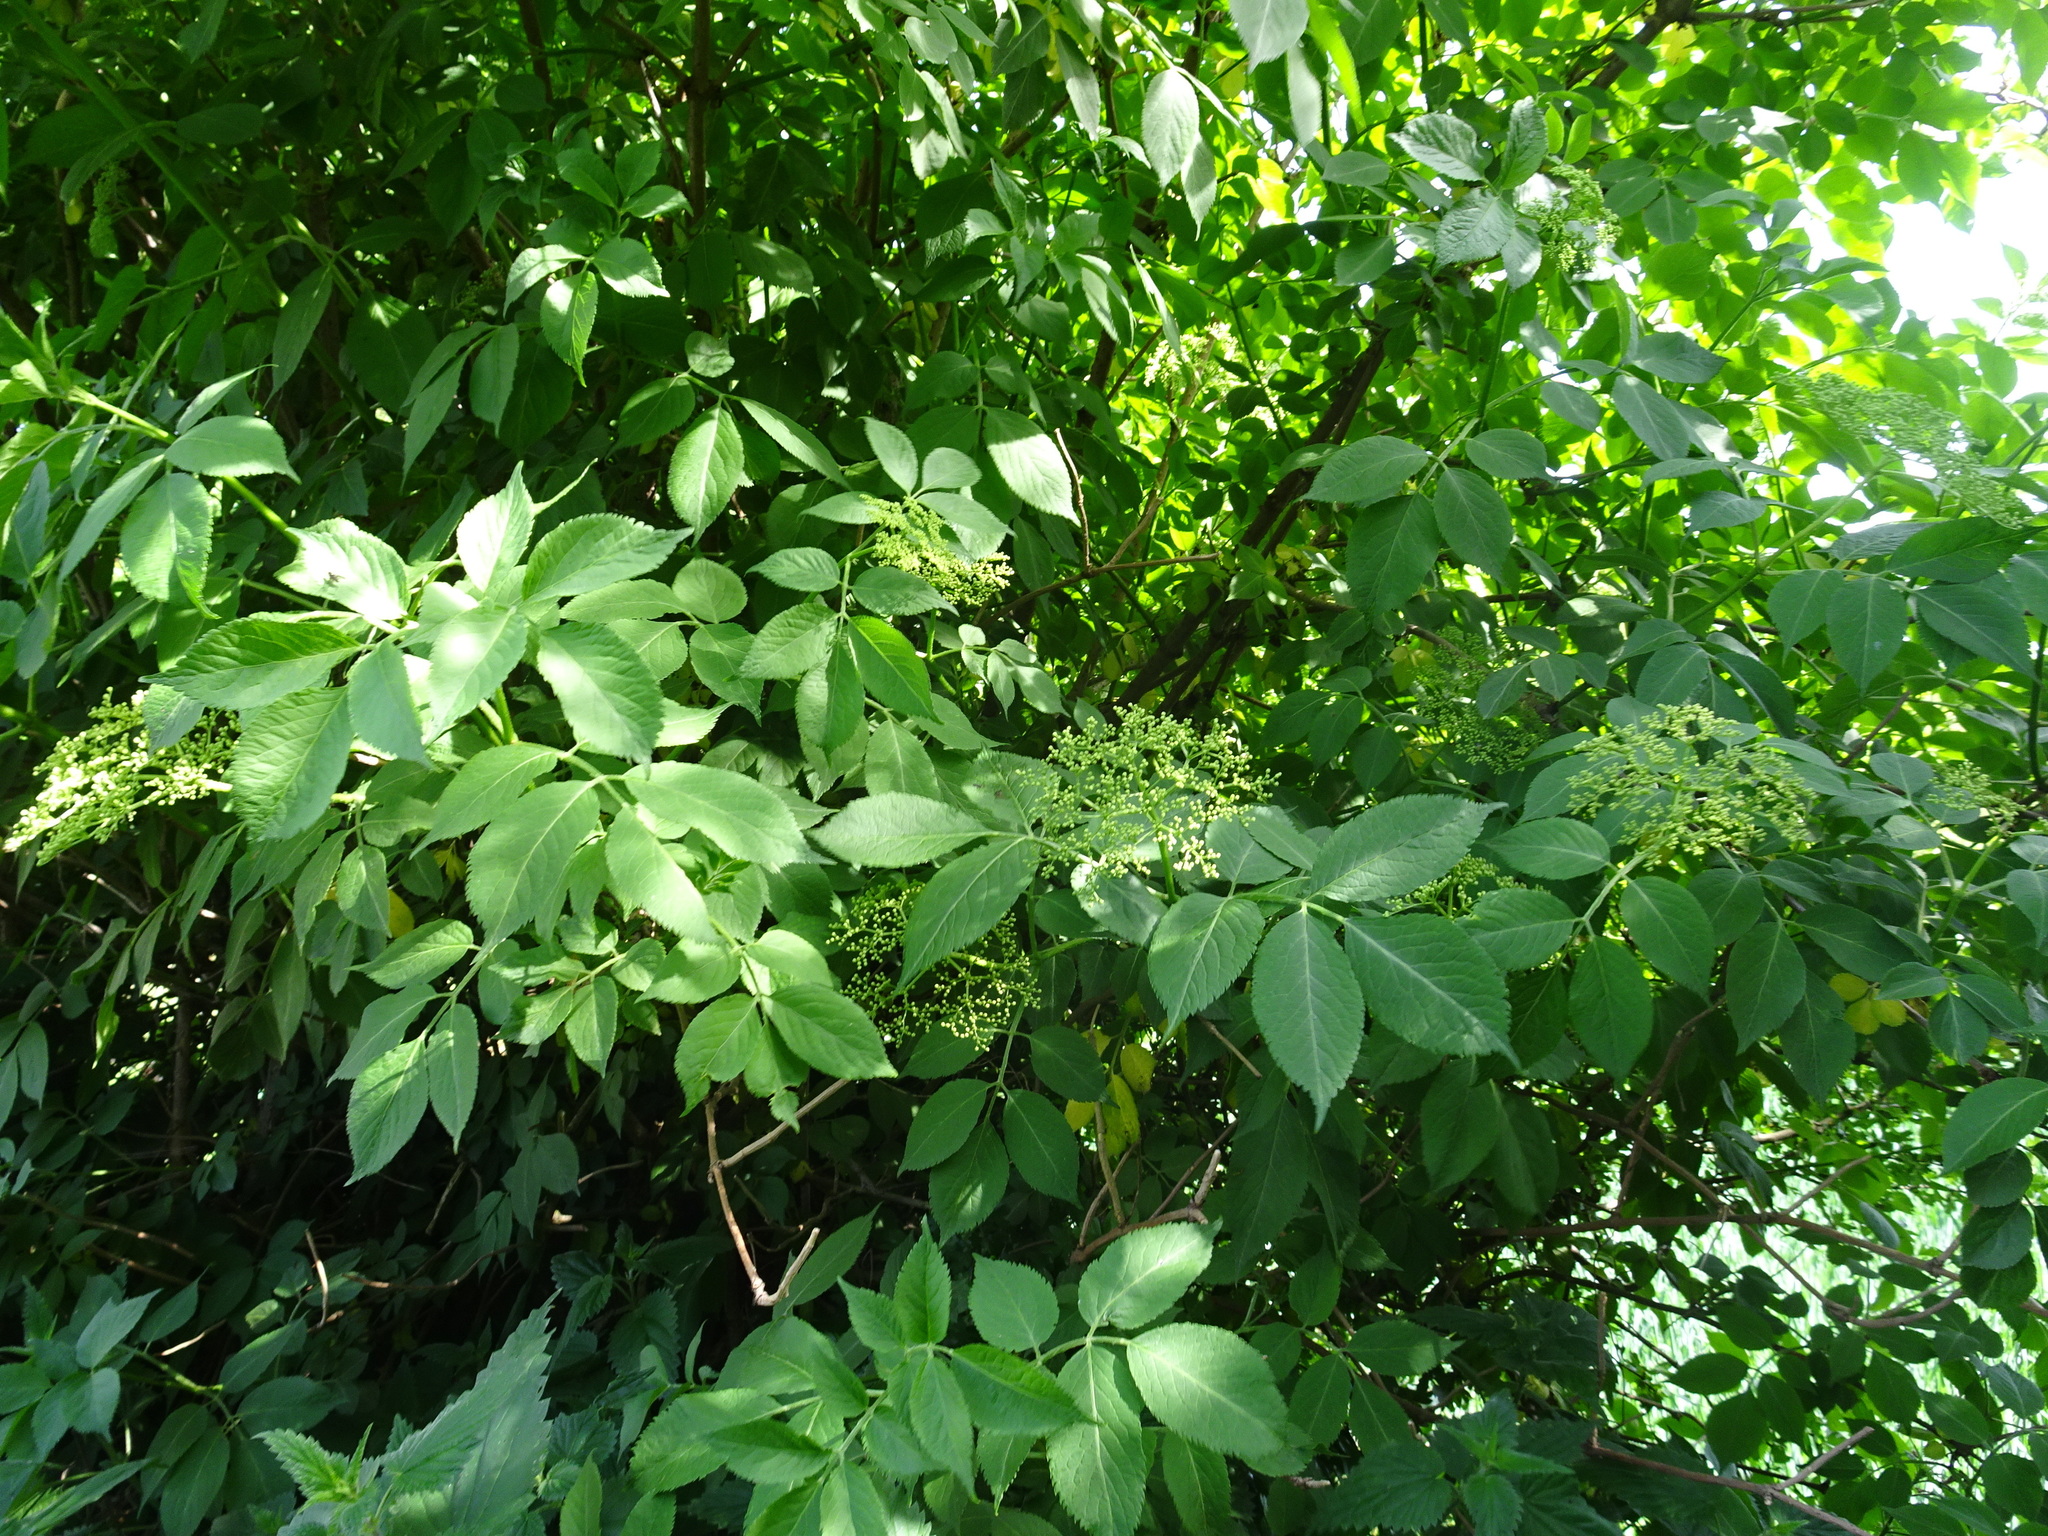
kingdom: Plantae
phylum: Tracheophyta
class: Magnoliopsida
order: Dipsacales
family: Viburnaceae
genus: Sambucus
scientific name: Sambucus nigra
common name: Elder
